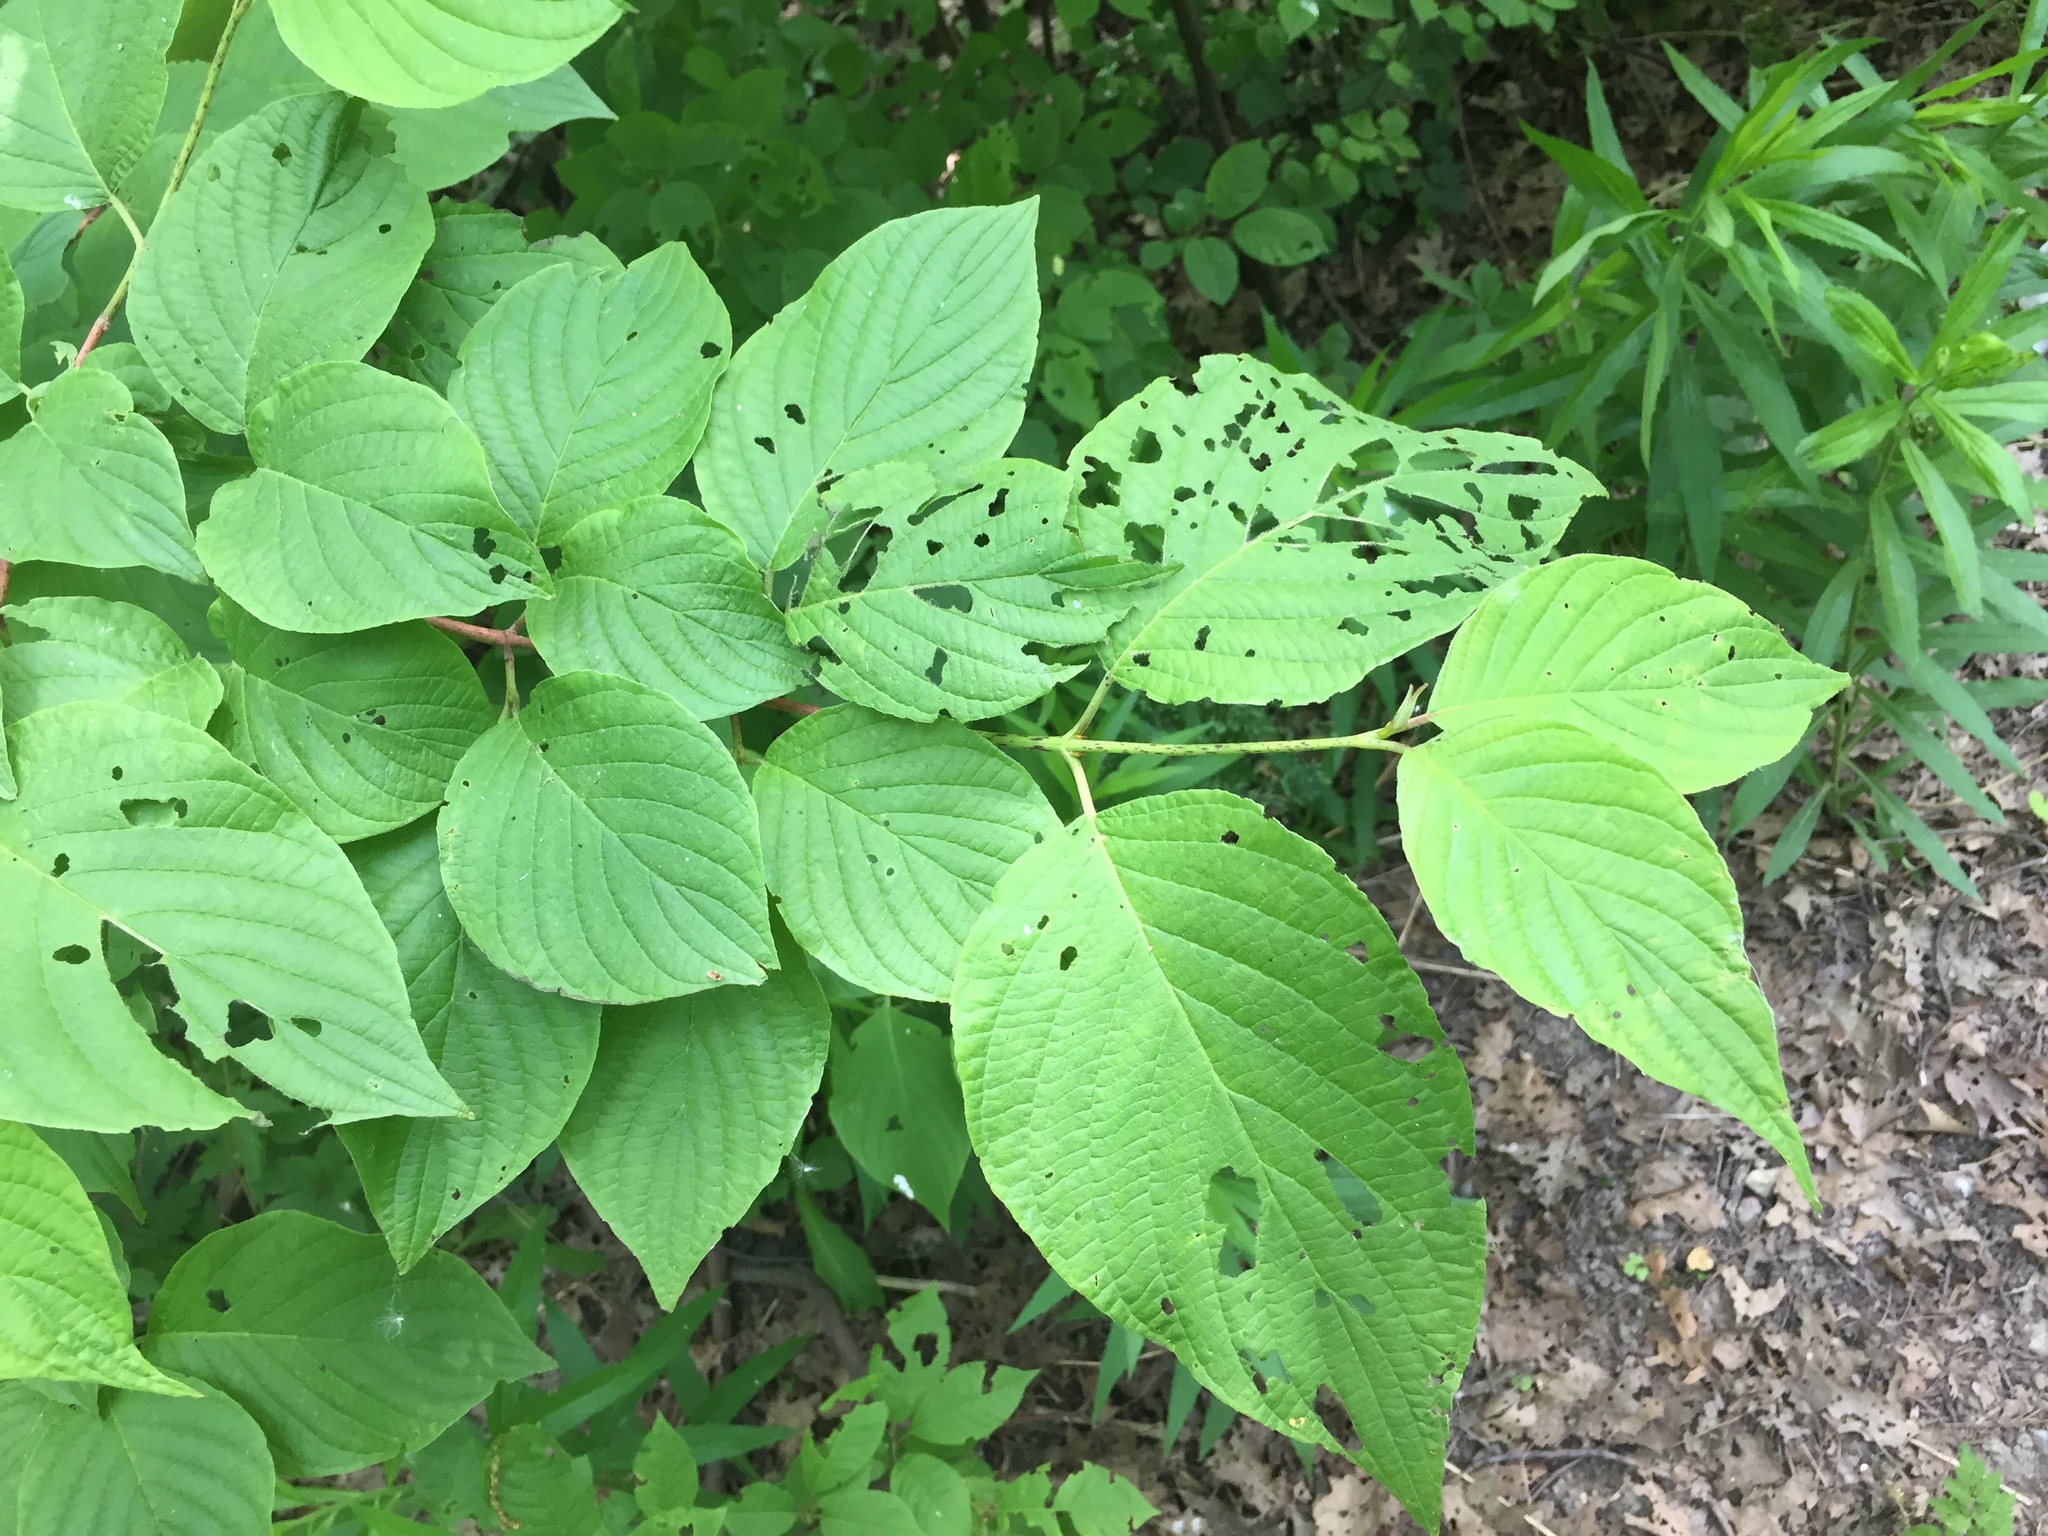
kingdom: Plantae
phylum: Tracheophyta
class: Magnoliopsida
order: Cornales
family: Cornaceae
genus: Cornus
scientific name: Cornus rugosa
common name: Round-leaf dogwood
